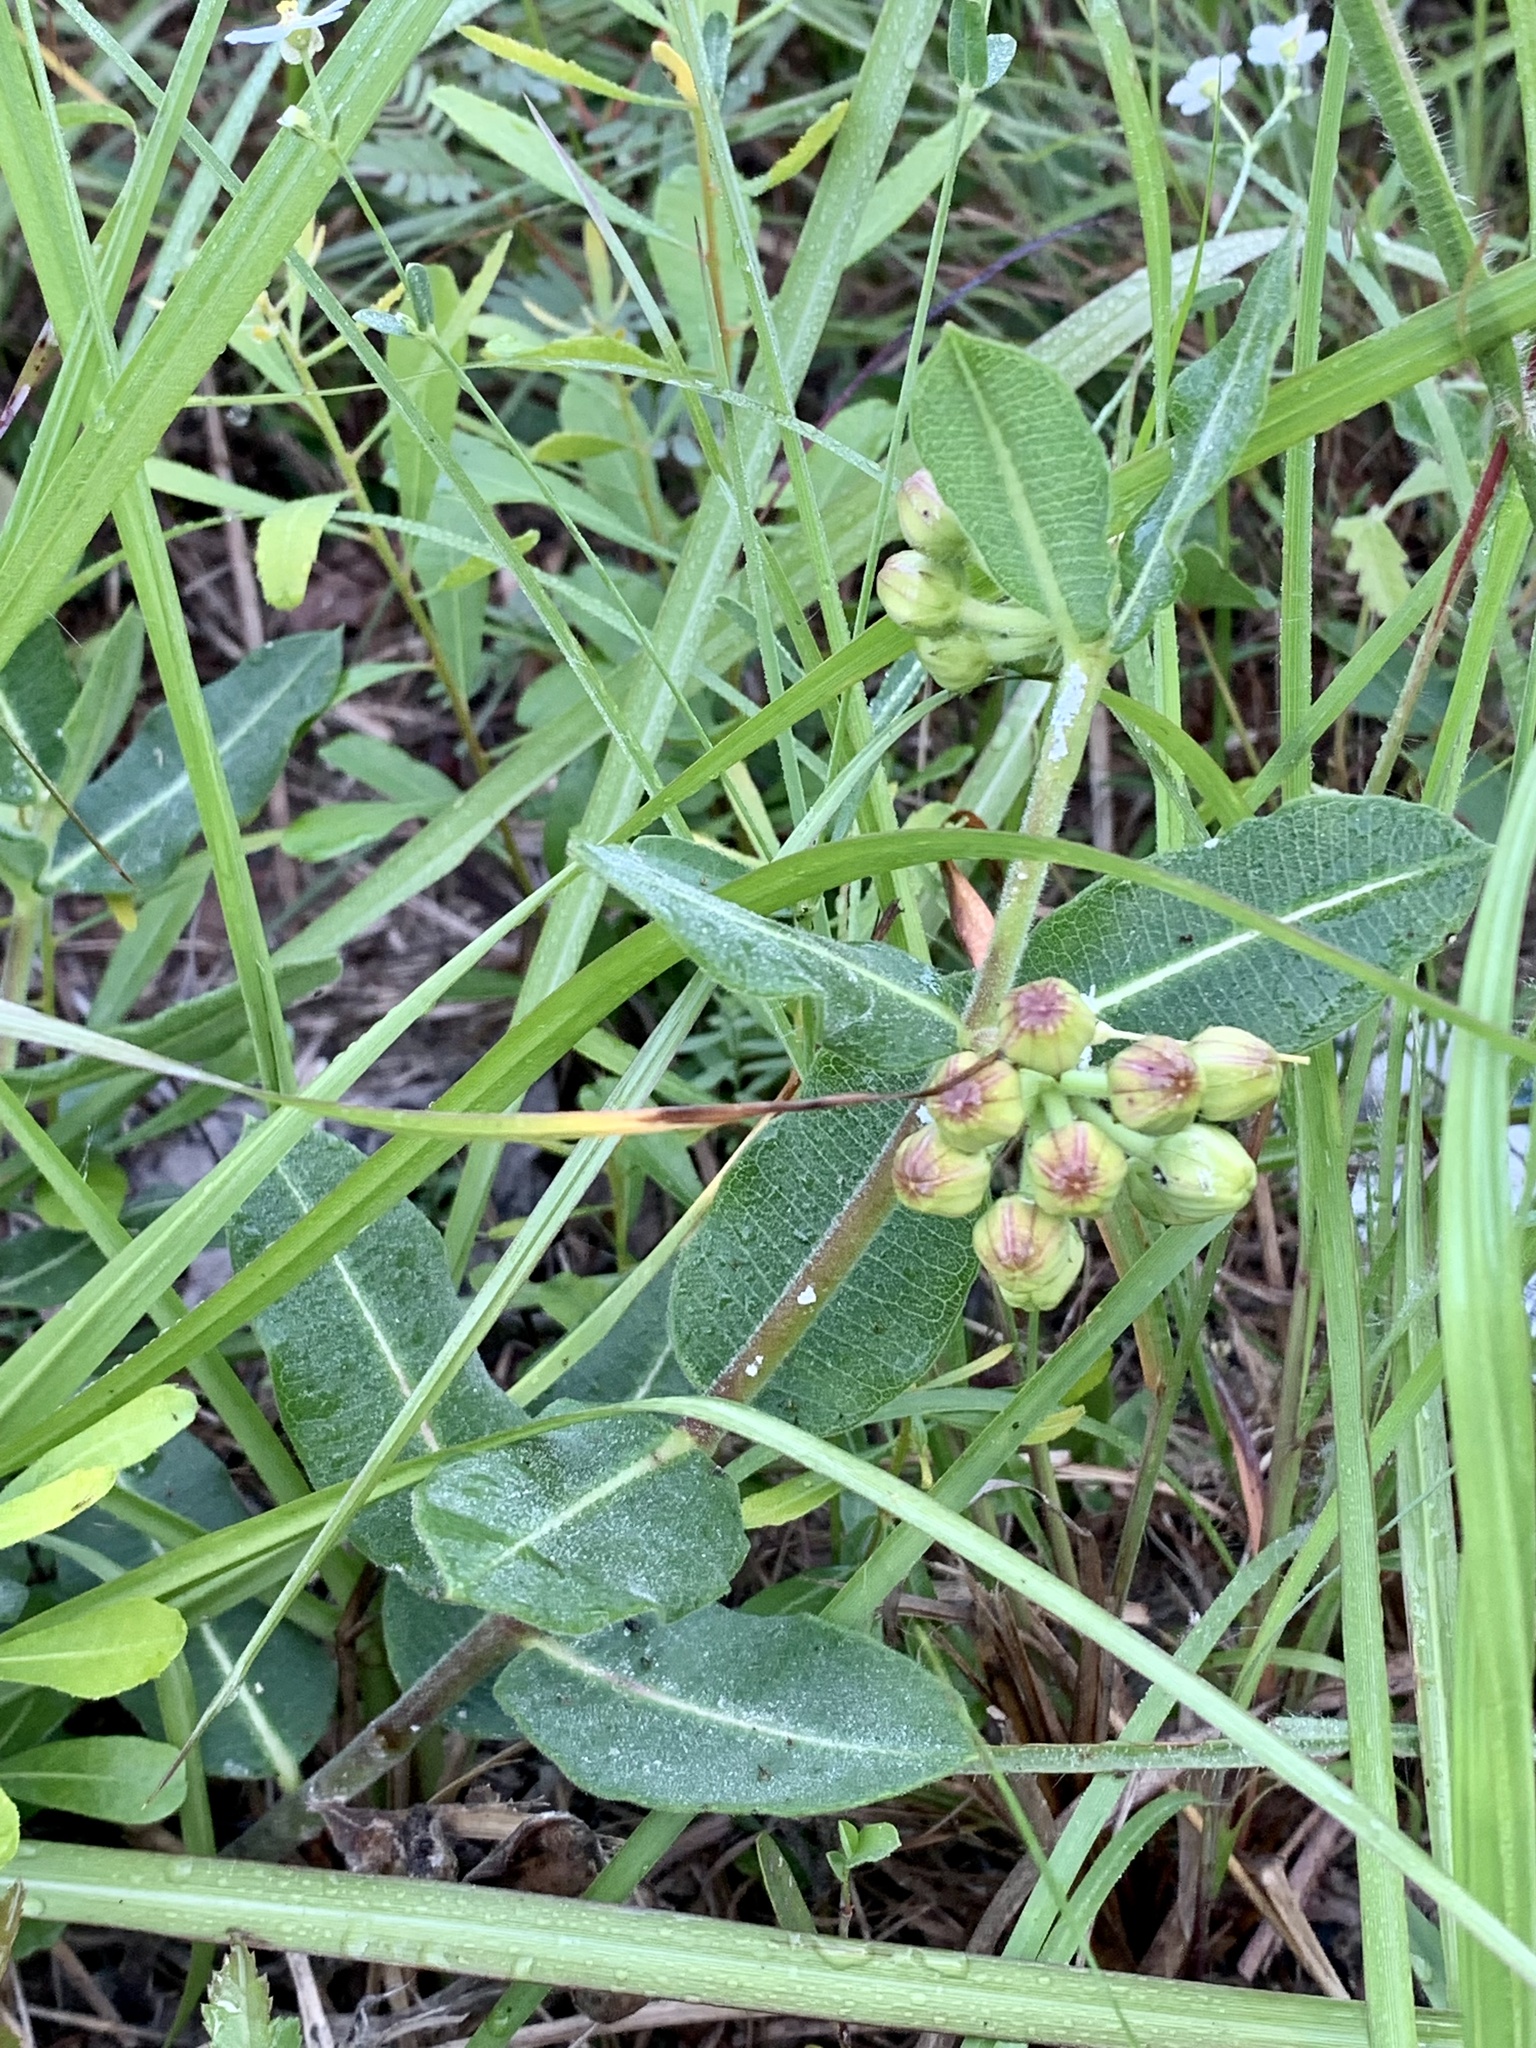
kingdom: Plantae
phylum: Tracheophyta
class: Magnoliopsida
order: Gentianales
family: Apocynaceae
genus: Asclepias
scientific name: Asclepias obovata
